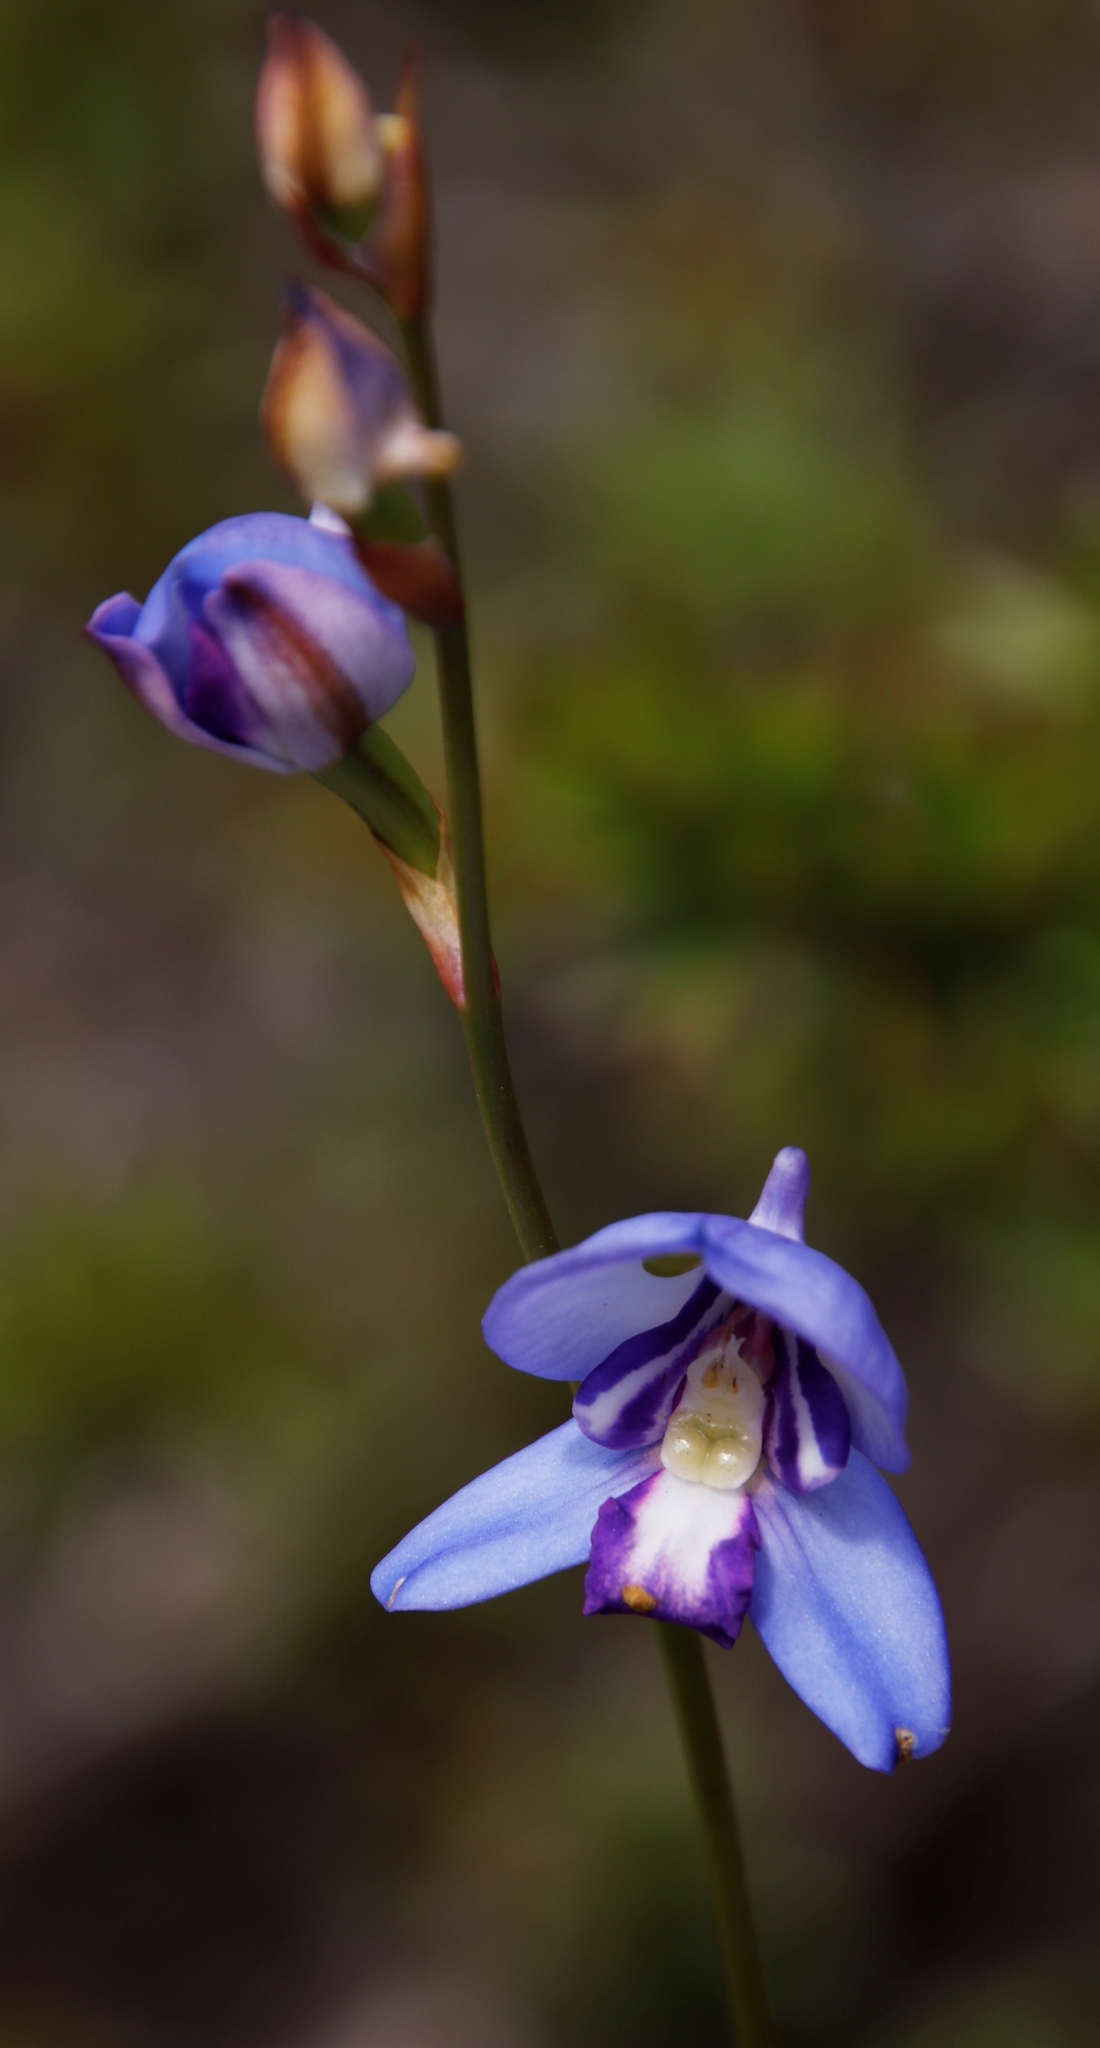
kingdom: Plantae
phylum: Tracheophyta
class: Liliopsida
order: Asparagales
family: Orchidaceae
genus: Disa
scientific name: Disa graminifolia
